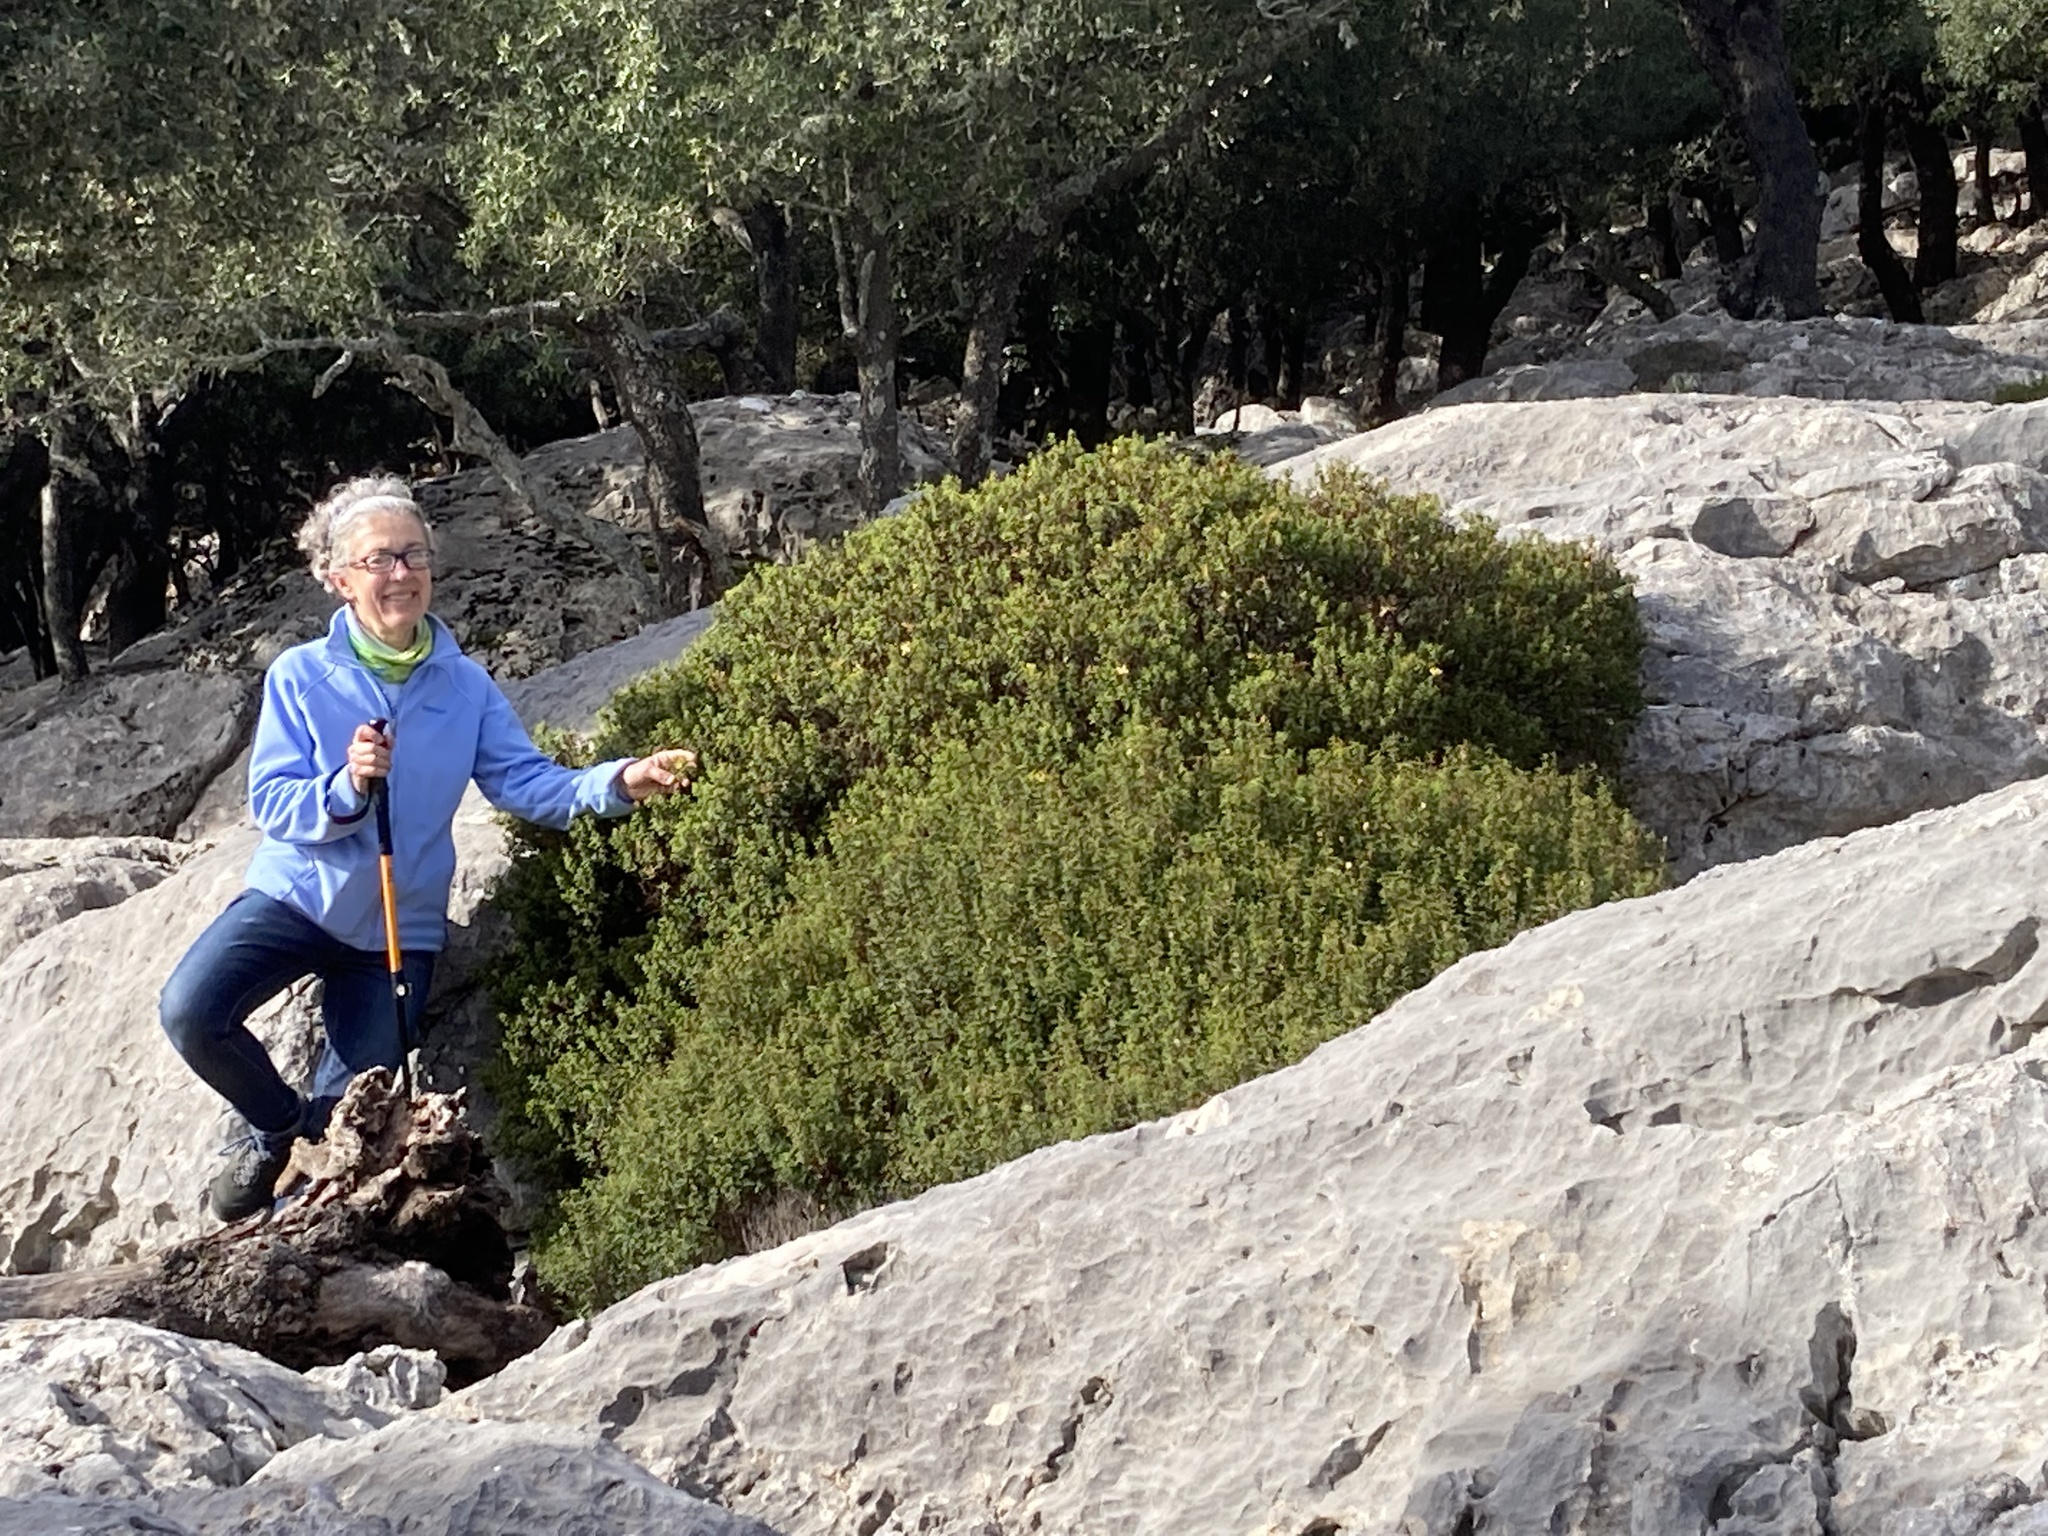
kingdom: Plantae
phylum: Tracheophyta
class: Magnoliopsida
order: Malpighiales
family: Hypericaceae
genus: Hypericum
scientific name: Hypericum balearicum
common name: Majorca st john's wort
